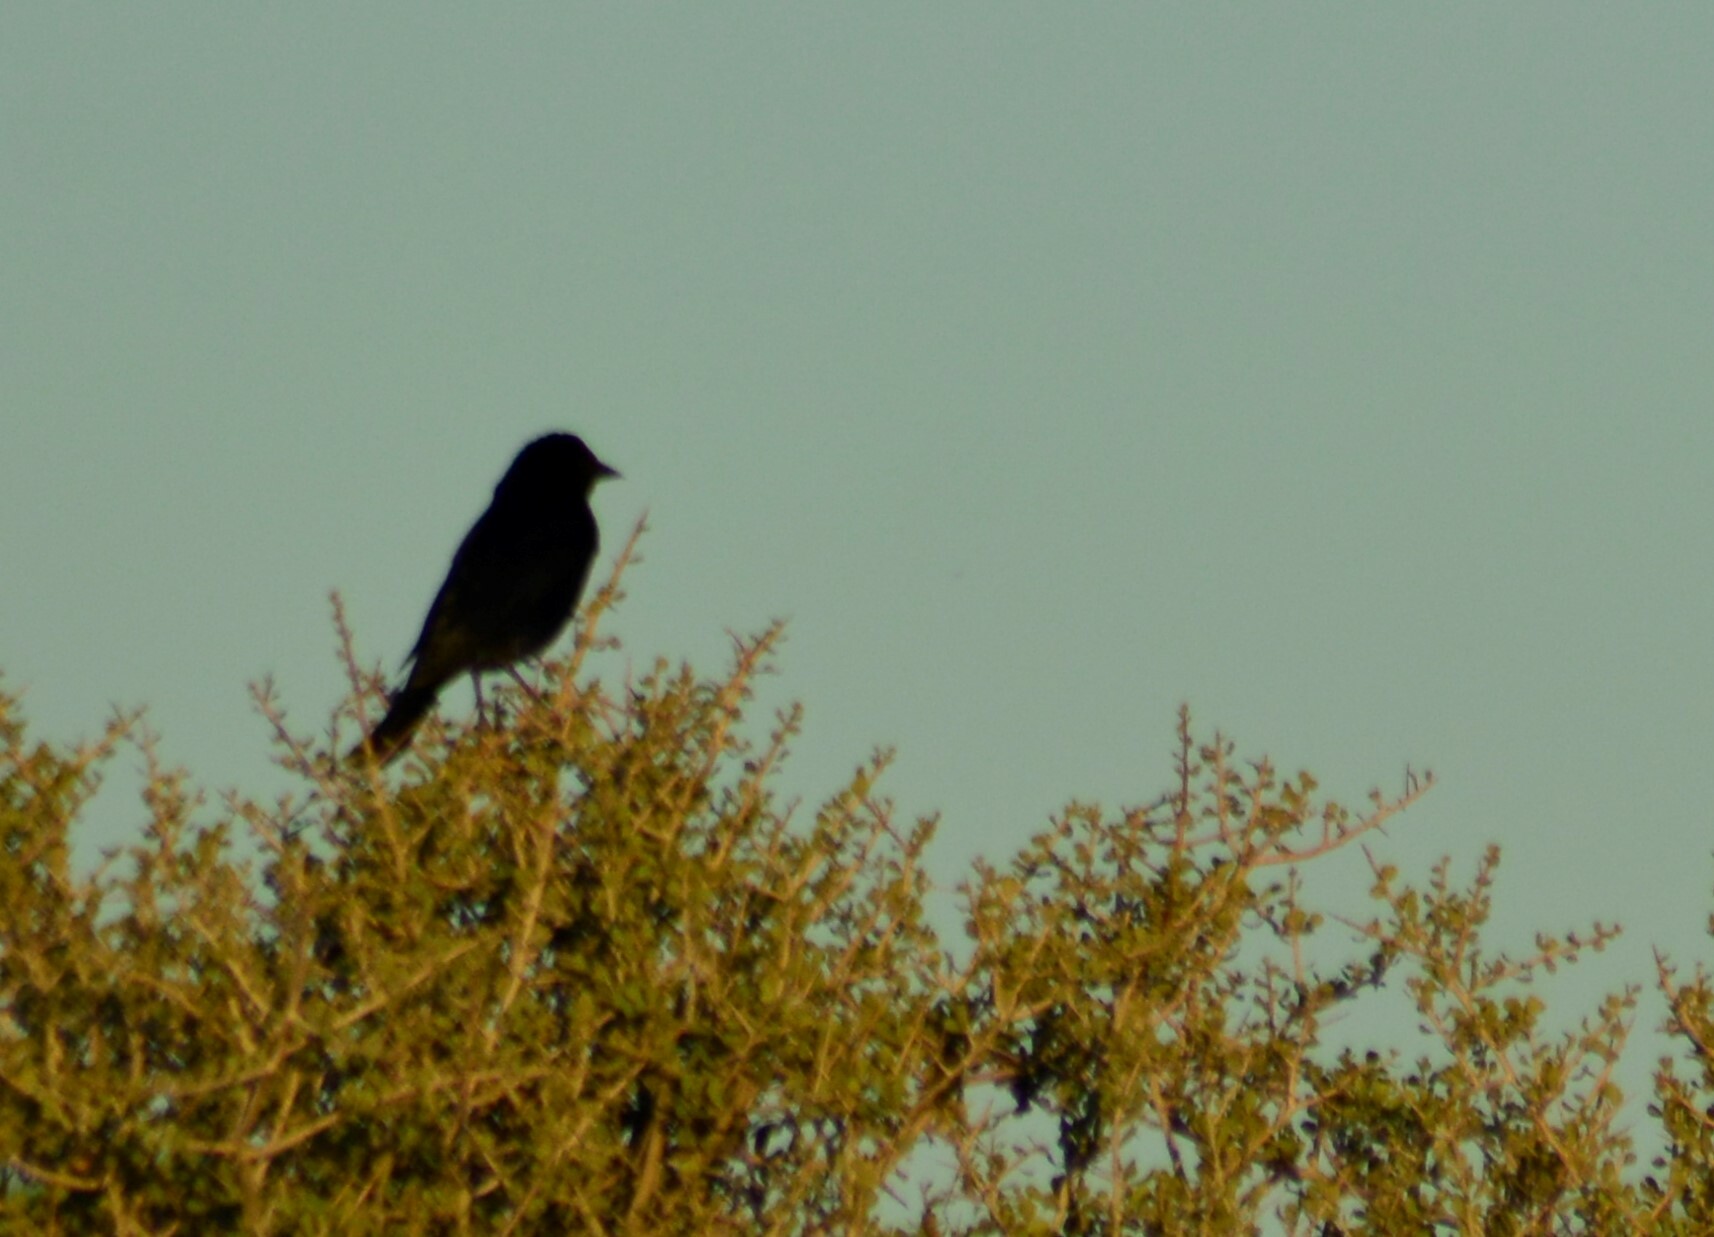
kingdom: Animalia
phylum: Chordata
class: Aves
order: Passeriformes
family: Icteridae
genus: Molothrus
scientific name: Molothrus bonariensis
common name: Shiny cowbird
